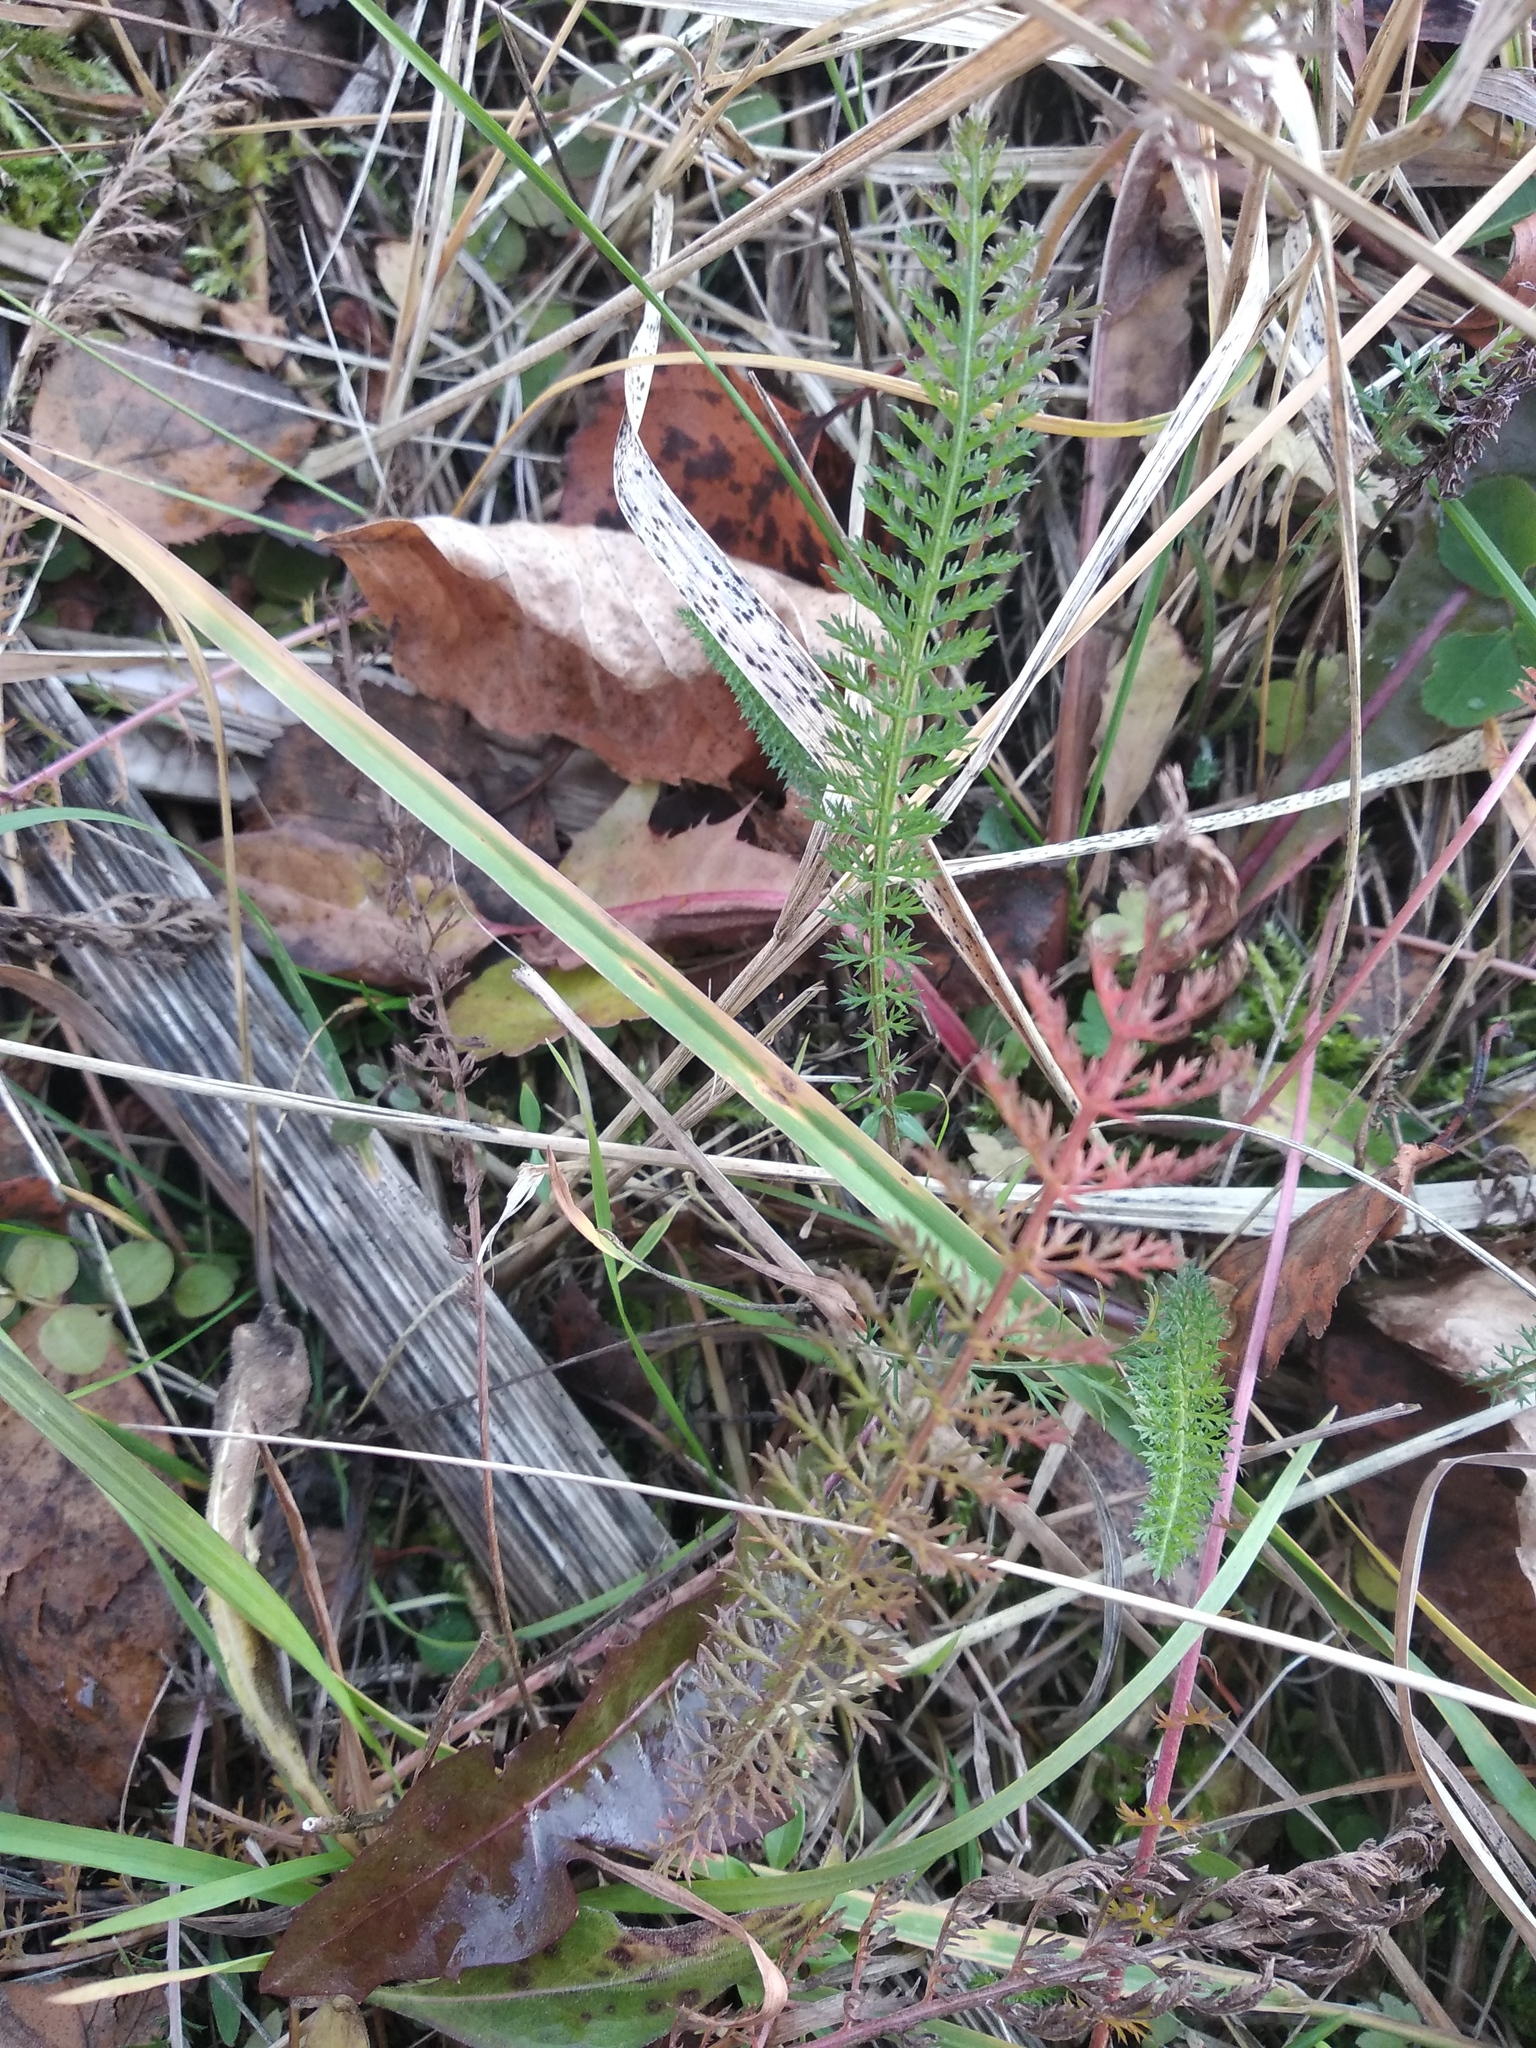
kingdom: Plantae
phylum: Tracheophyta
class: Magnoliopsida
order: Asterales
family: Asteraceae
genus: Achillea
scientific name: Achillea millefolium
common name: Yarrow
